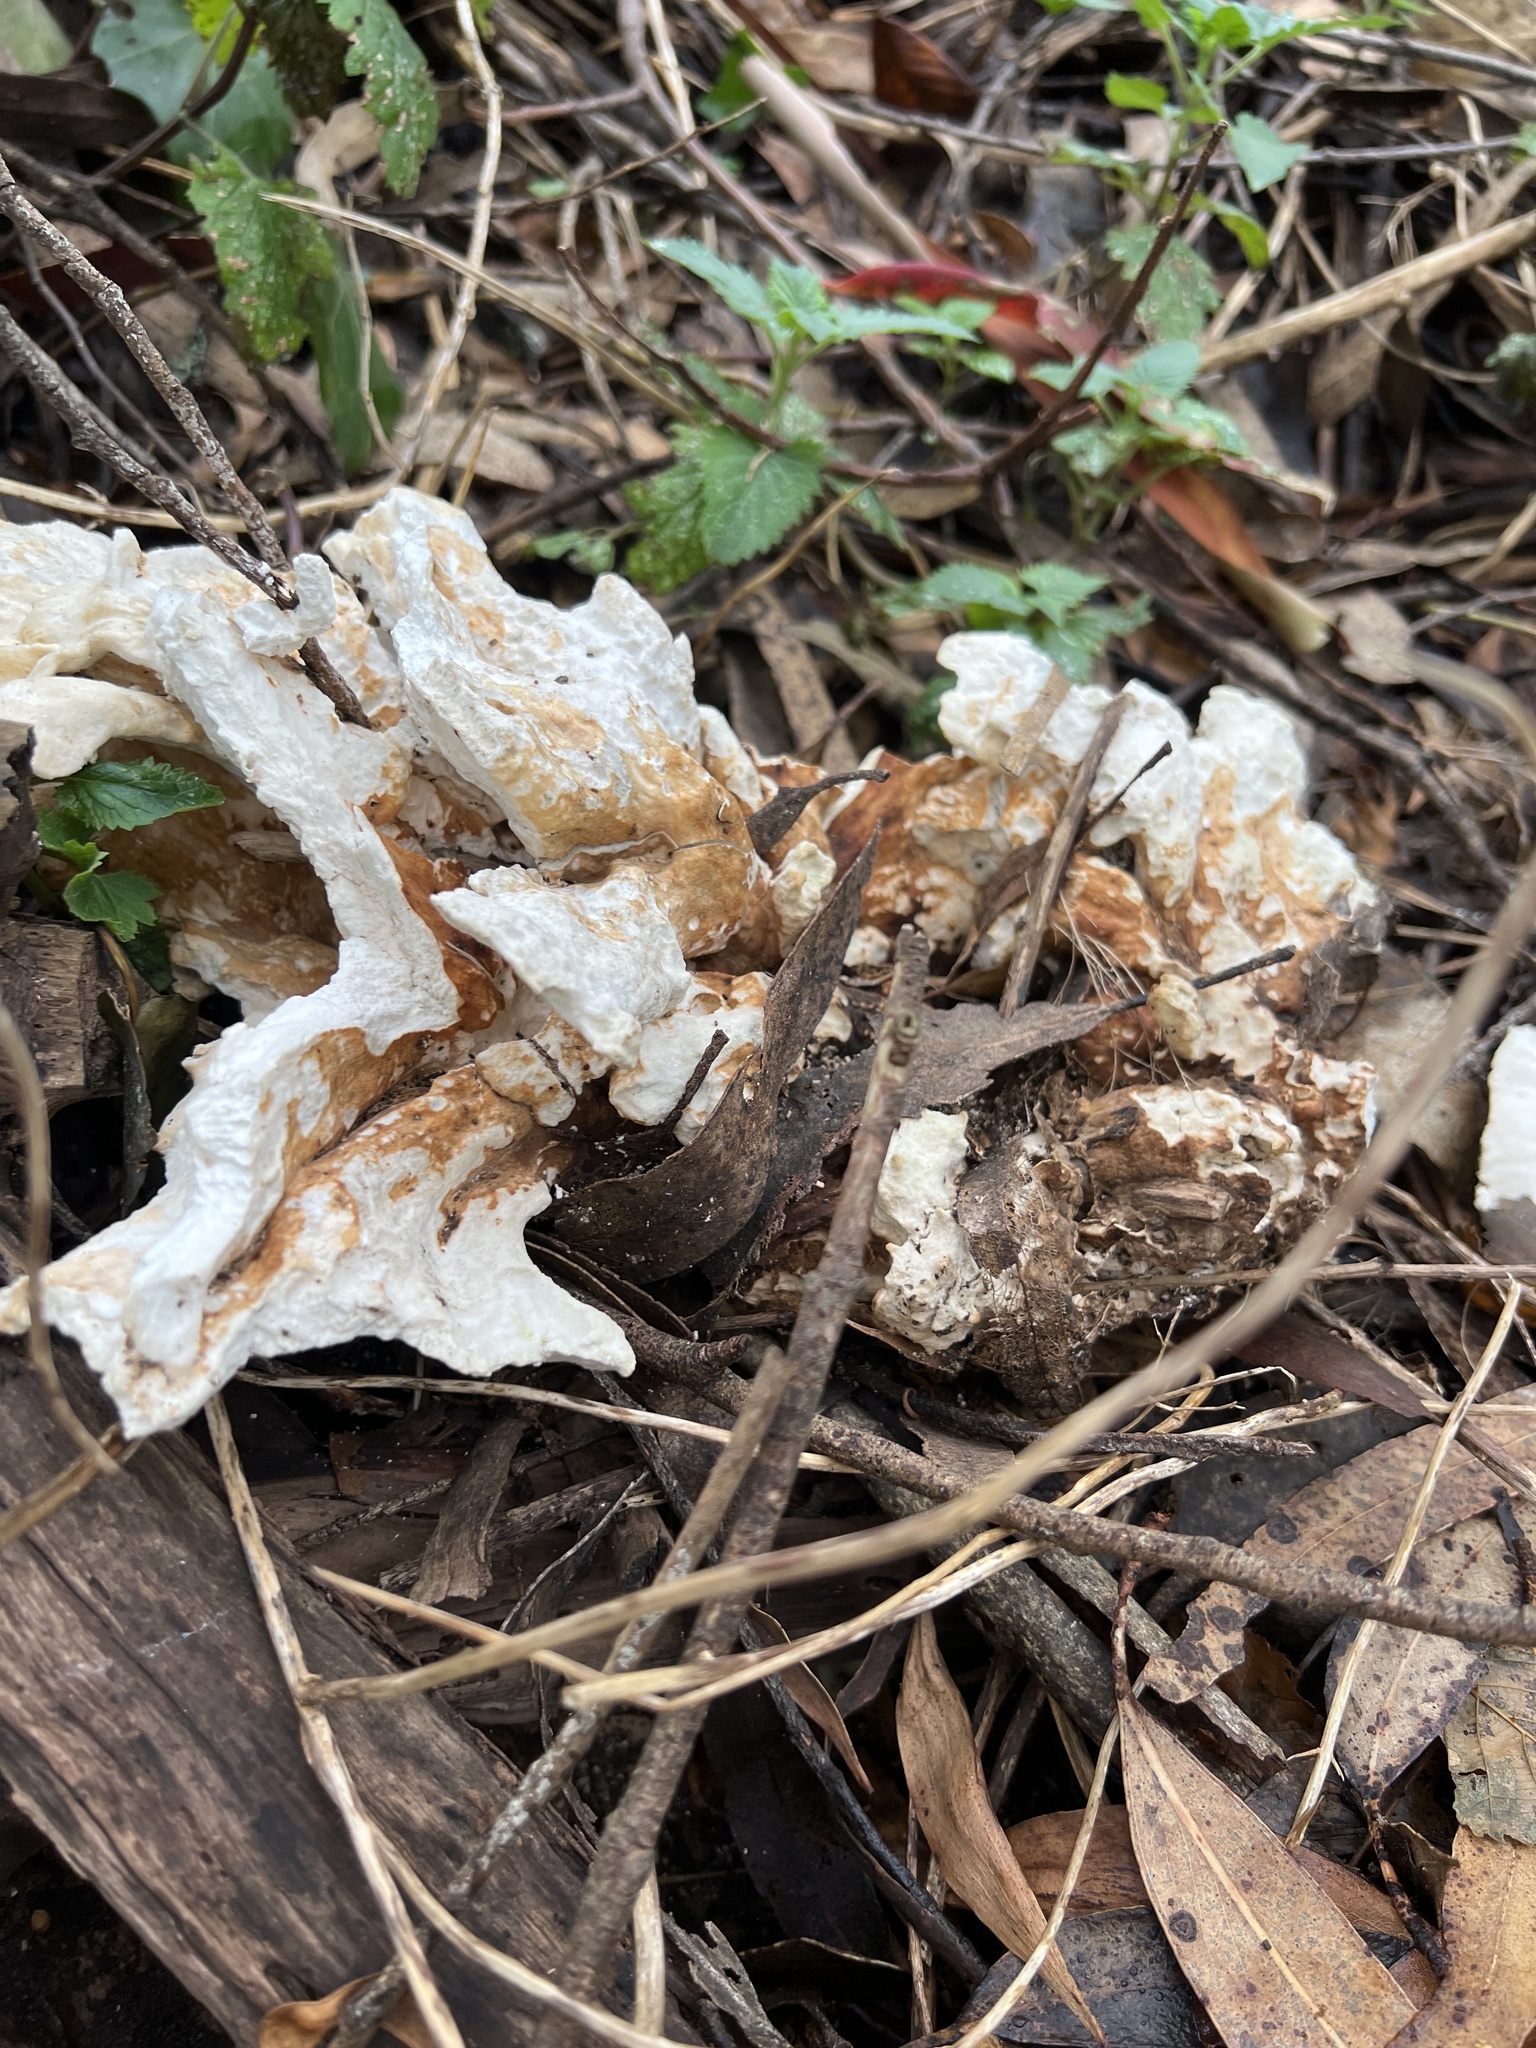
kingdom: Fungi
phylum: Basidiomycota
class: Agaricomycetes
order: Polyporales
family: Laetiporaceae
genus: Laetiporus
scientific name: Laetiporus gilbertsonii
